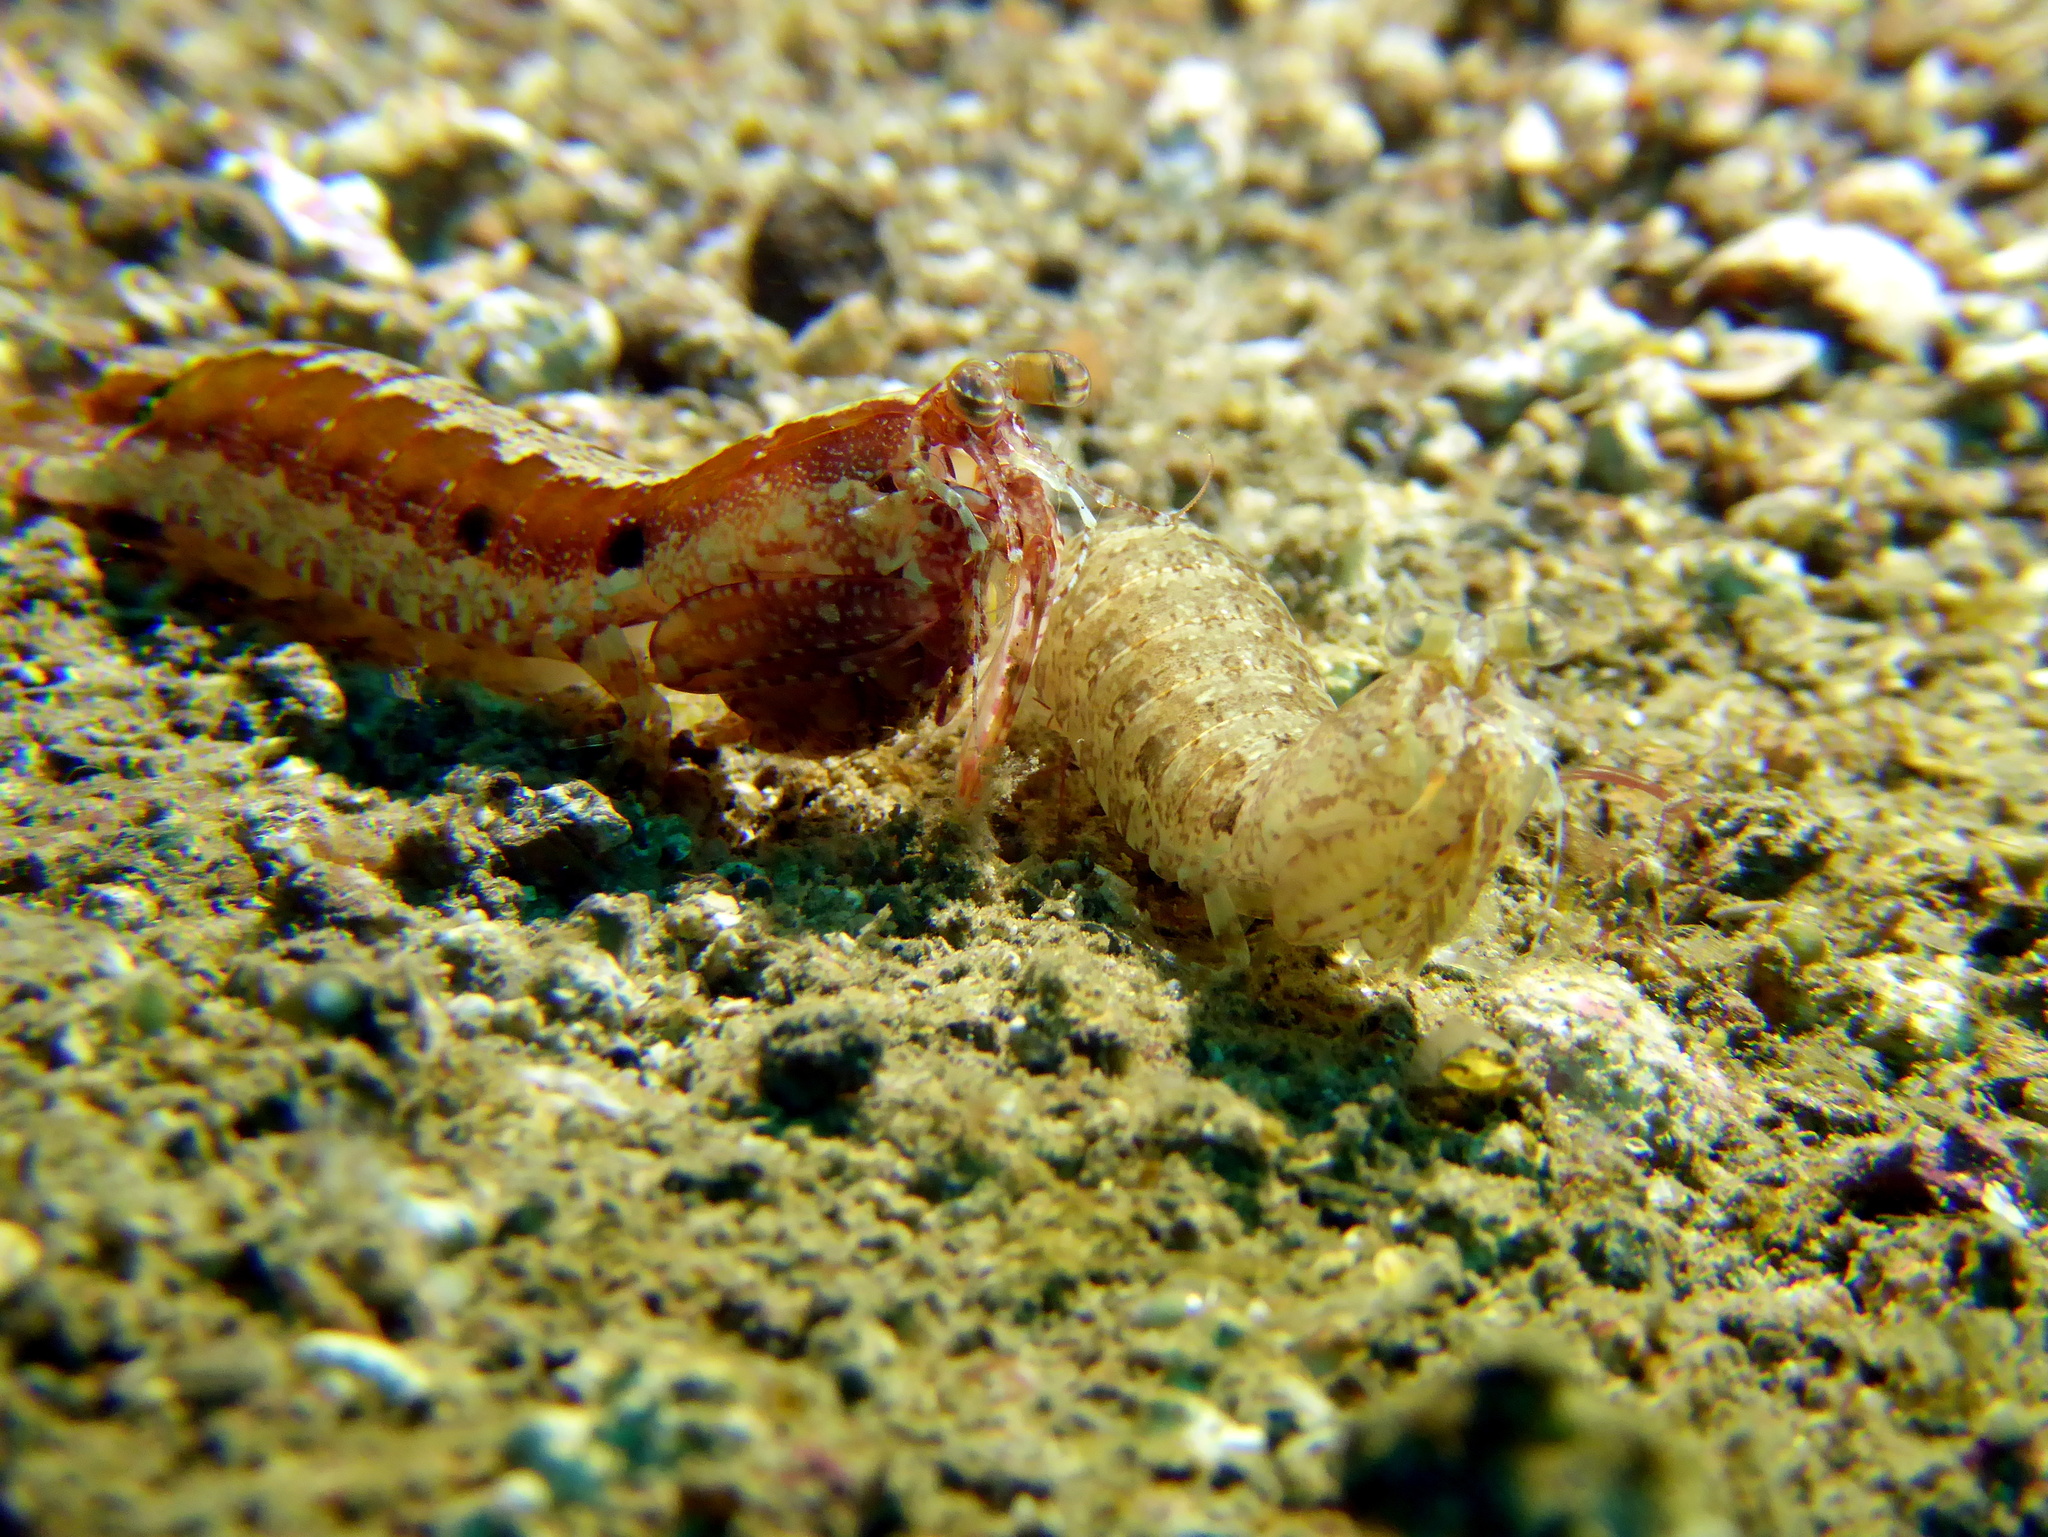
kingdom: Animalia
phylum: Arthropoda
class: Malacostraca
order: Stomatopoda
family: Pseudosquillidae
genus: Pseudosquilla
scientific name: Pseudosquilla ciliata
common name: Ciliated false squilla
